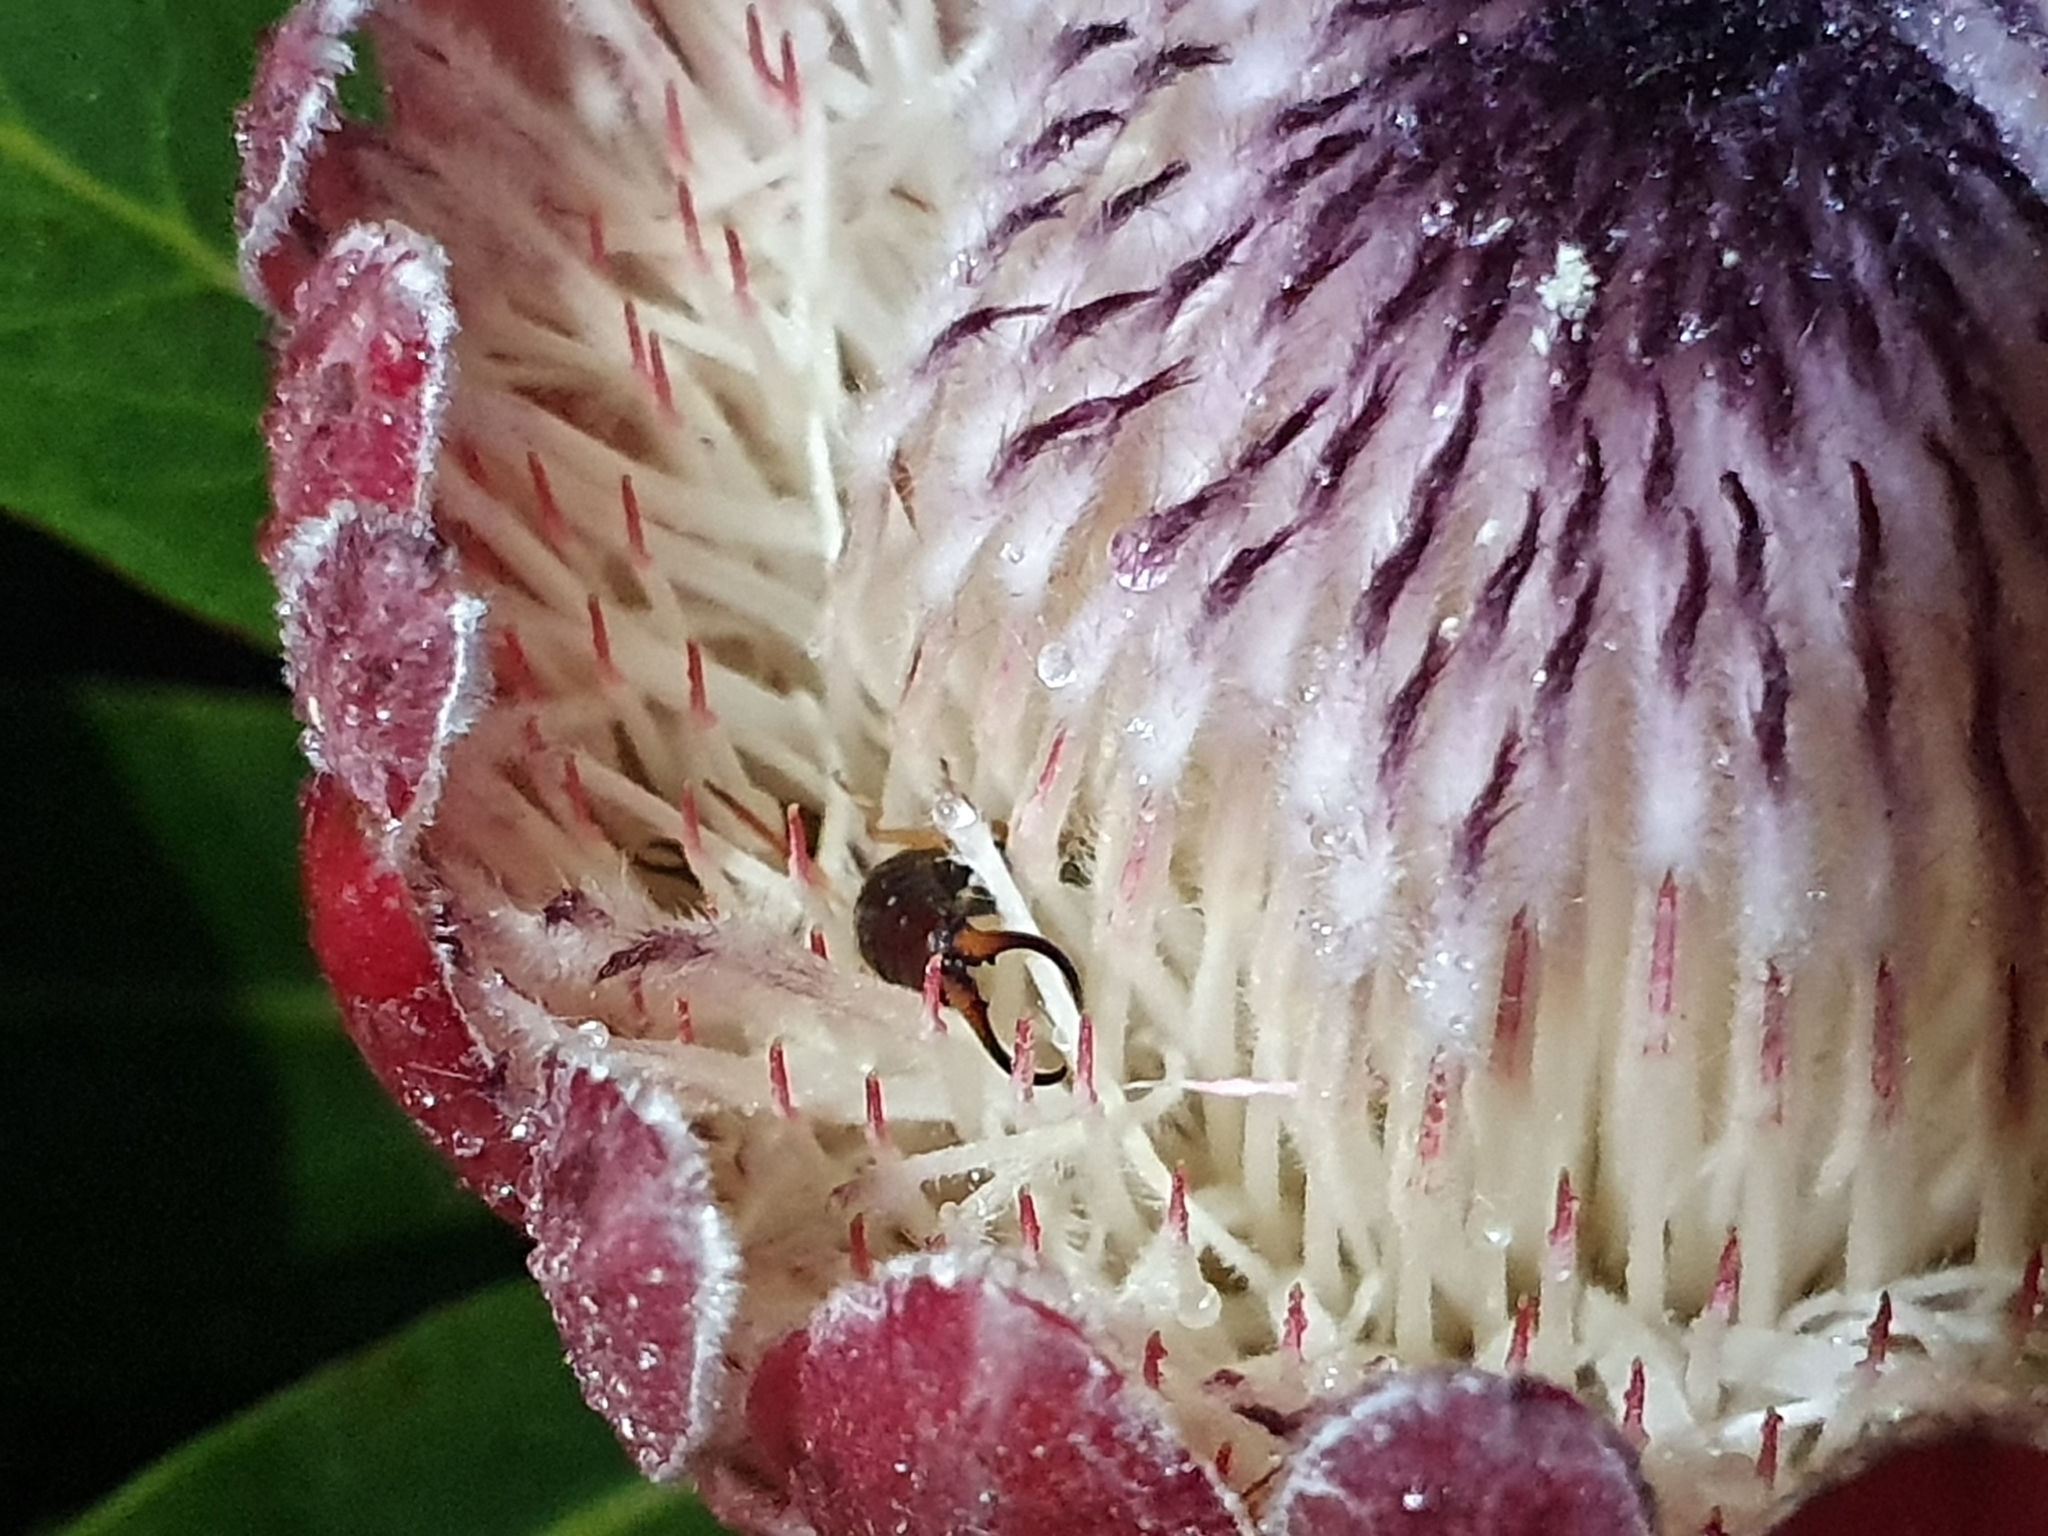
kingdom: Animalia
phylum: Arthropoda
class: Insecta
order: Dermaptera
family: Forficulidae
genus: Forficula
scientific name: Forficula
